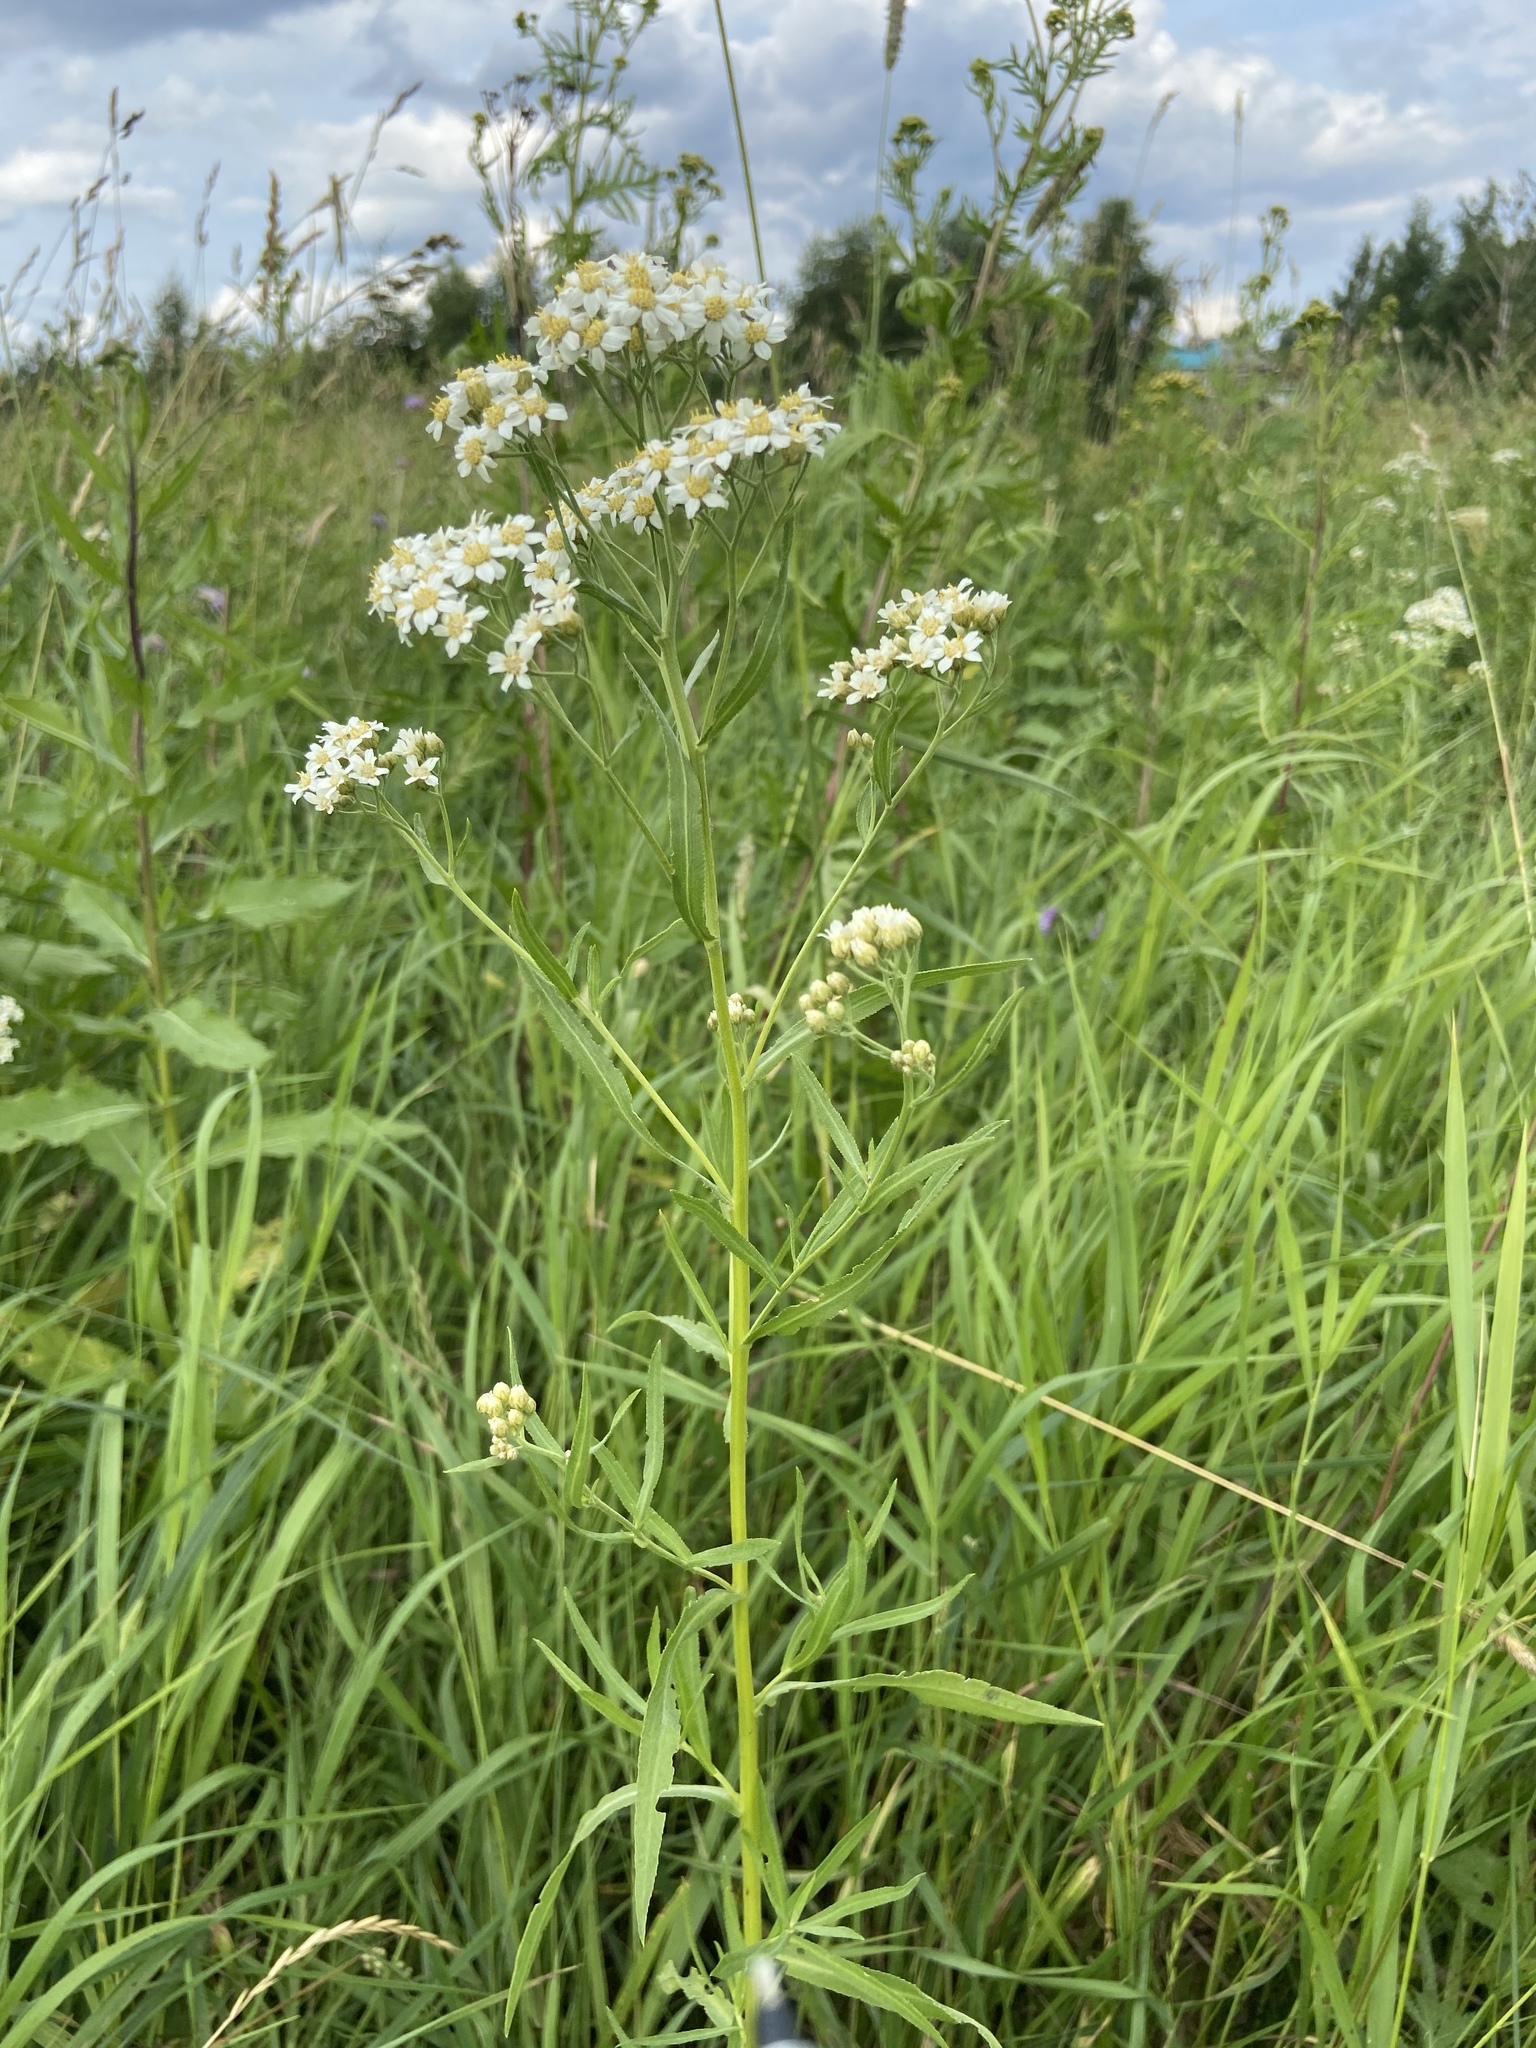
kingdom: Plantae
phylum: Tracheophyta
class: Magnoliopsida
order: Asterales
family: Asteraceae
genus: Achillea
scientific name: Achillea salicifolia
